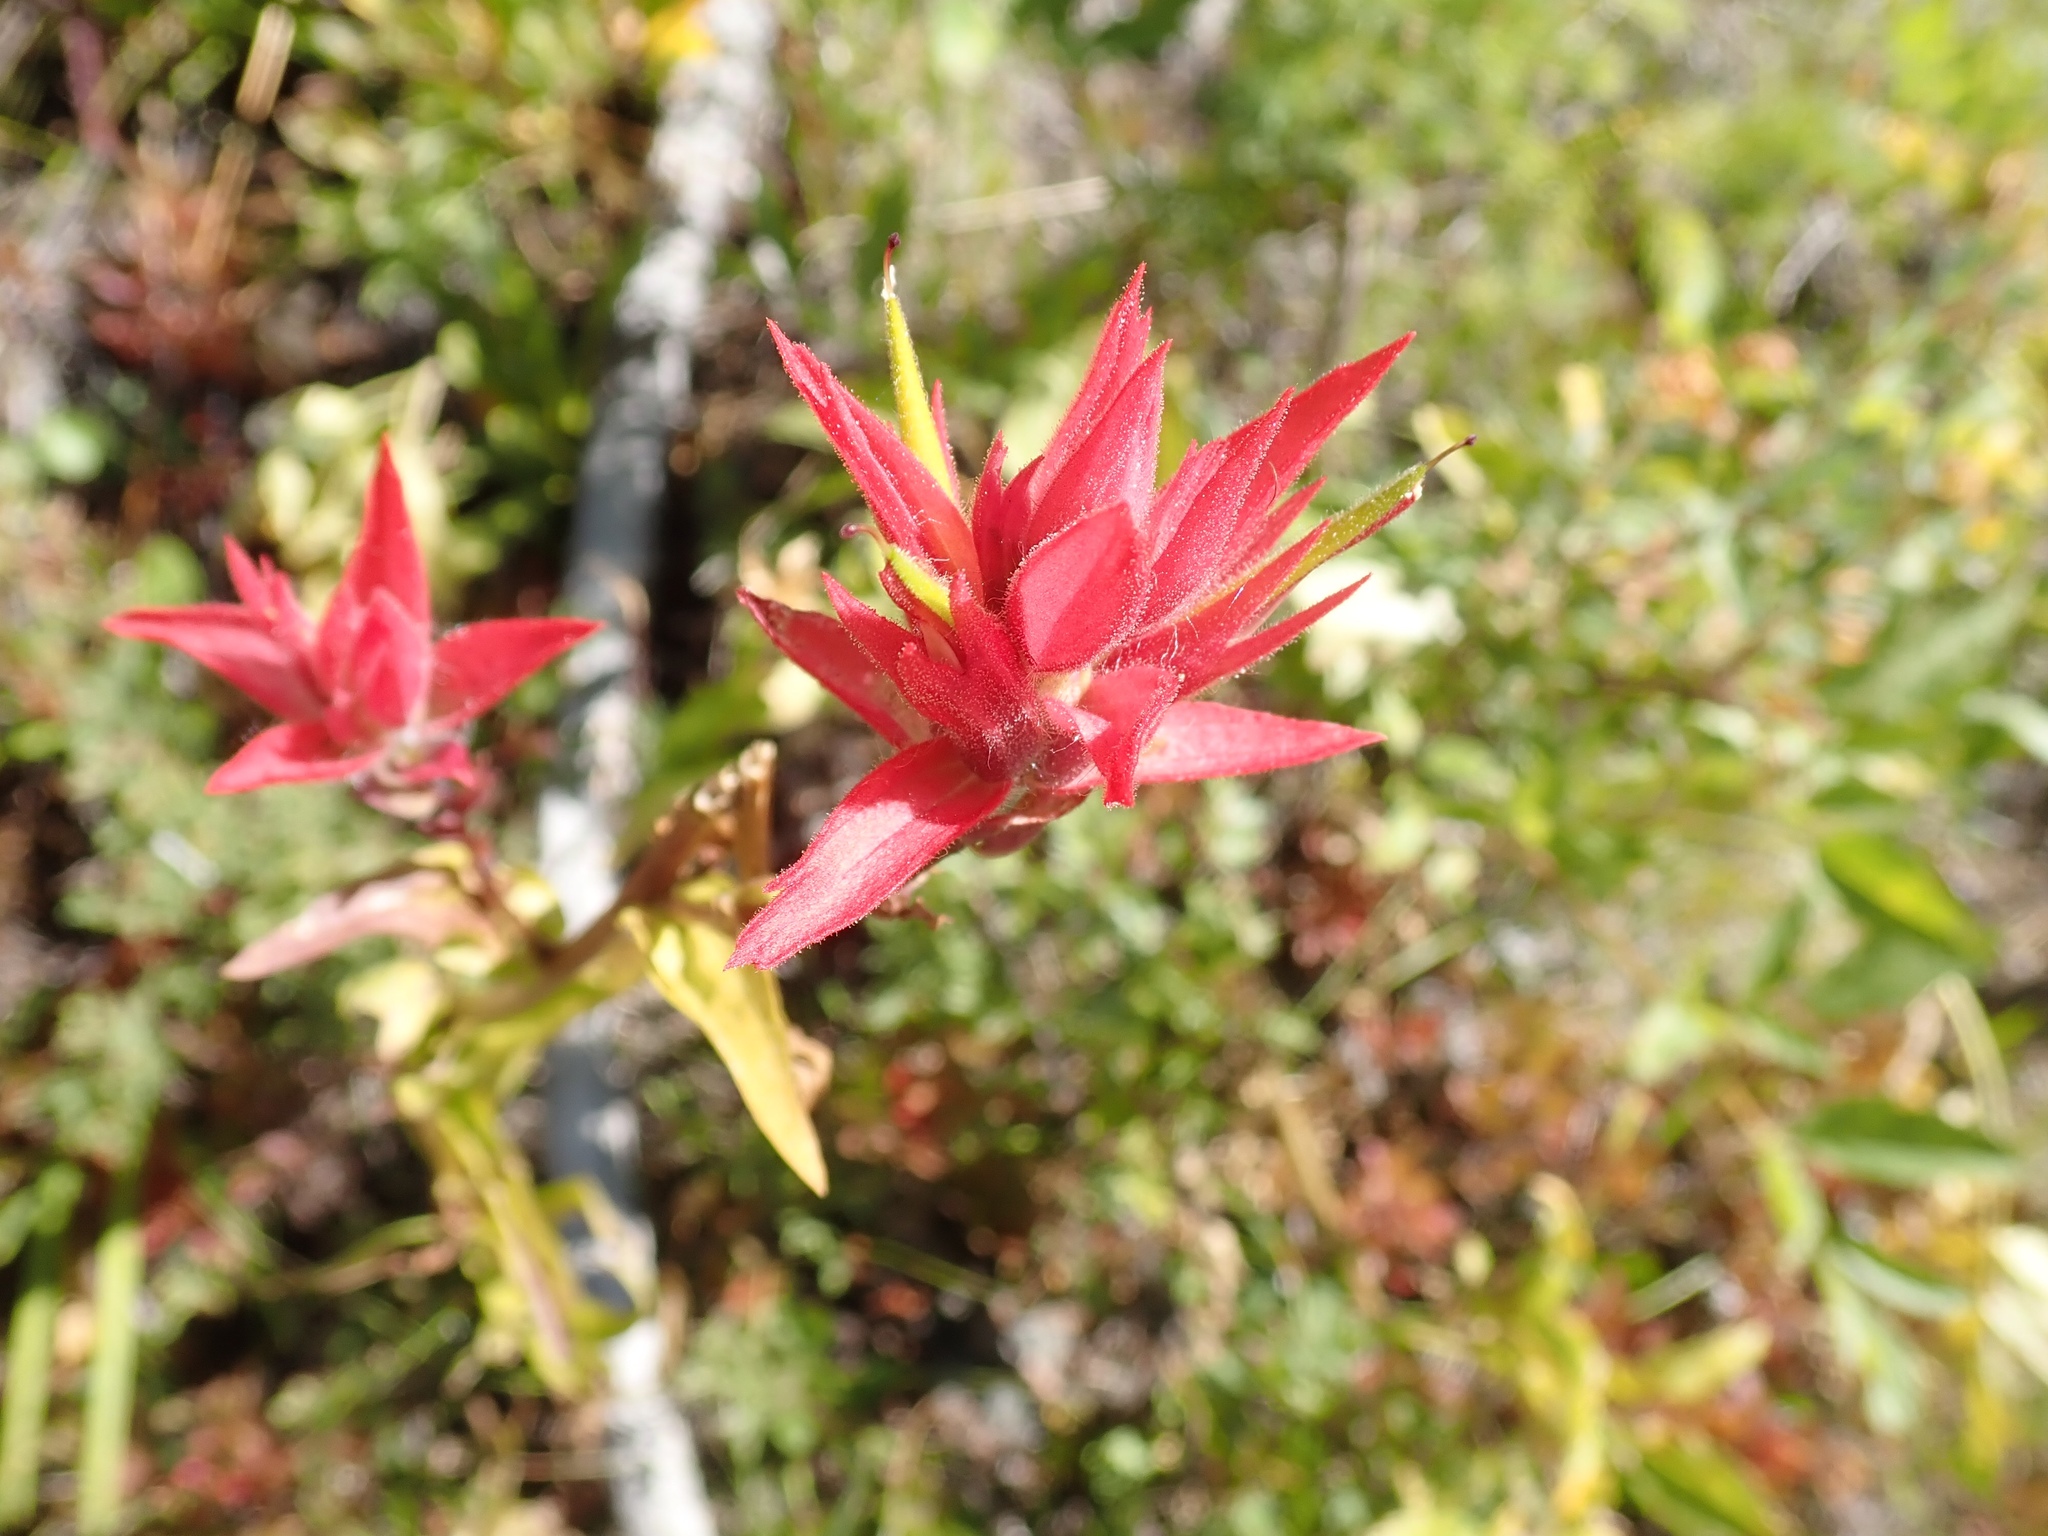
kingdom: Plantae
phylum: Tracheophyta
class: Magnoliopsida
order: Lamiales
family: Orobanchaceae
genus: Castilleja
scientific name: Castilleja miniata
